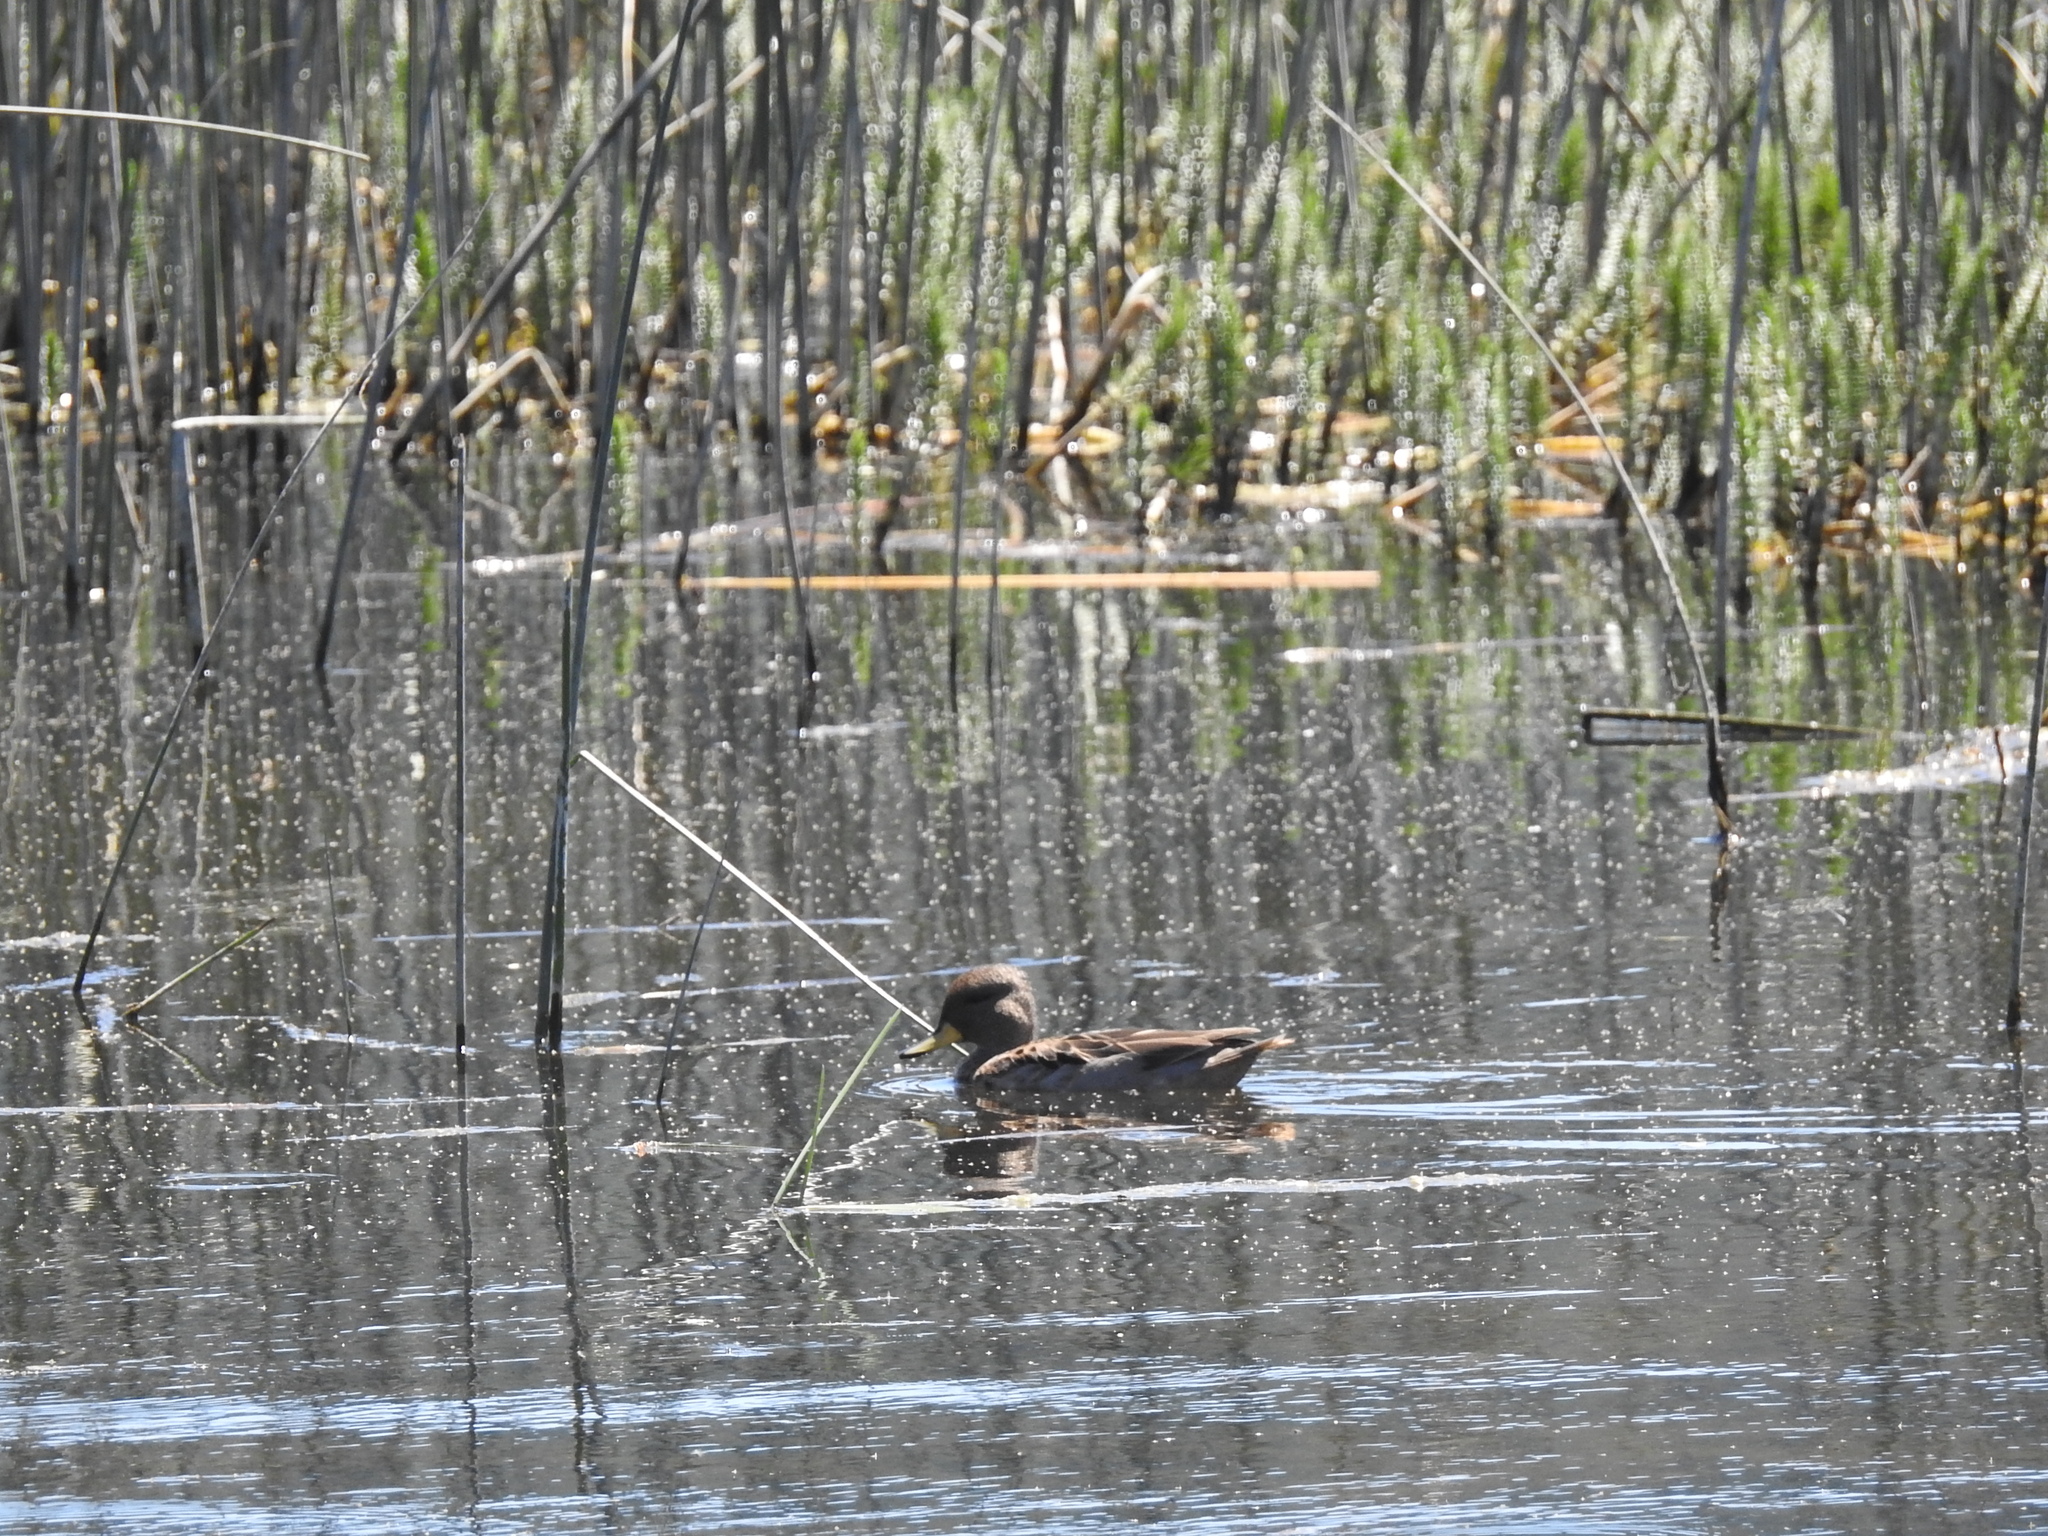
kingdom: Animalia
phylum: Chordata
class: Aves
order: Anseriformes
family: Anatidae
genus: Anas
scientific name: Anas flavirostris
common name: Yellow-billed teal
